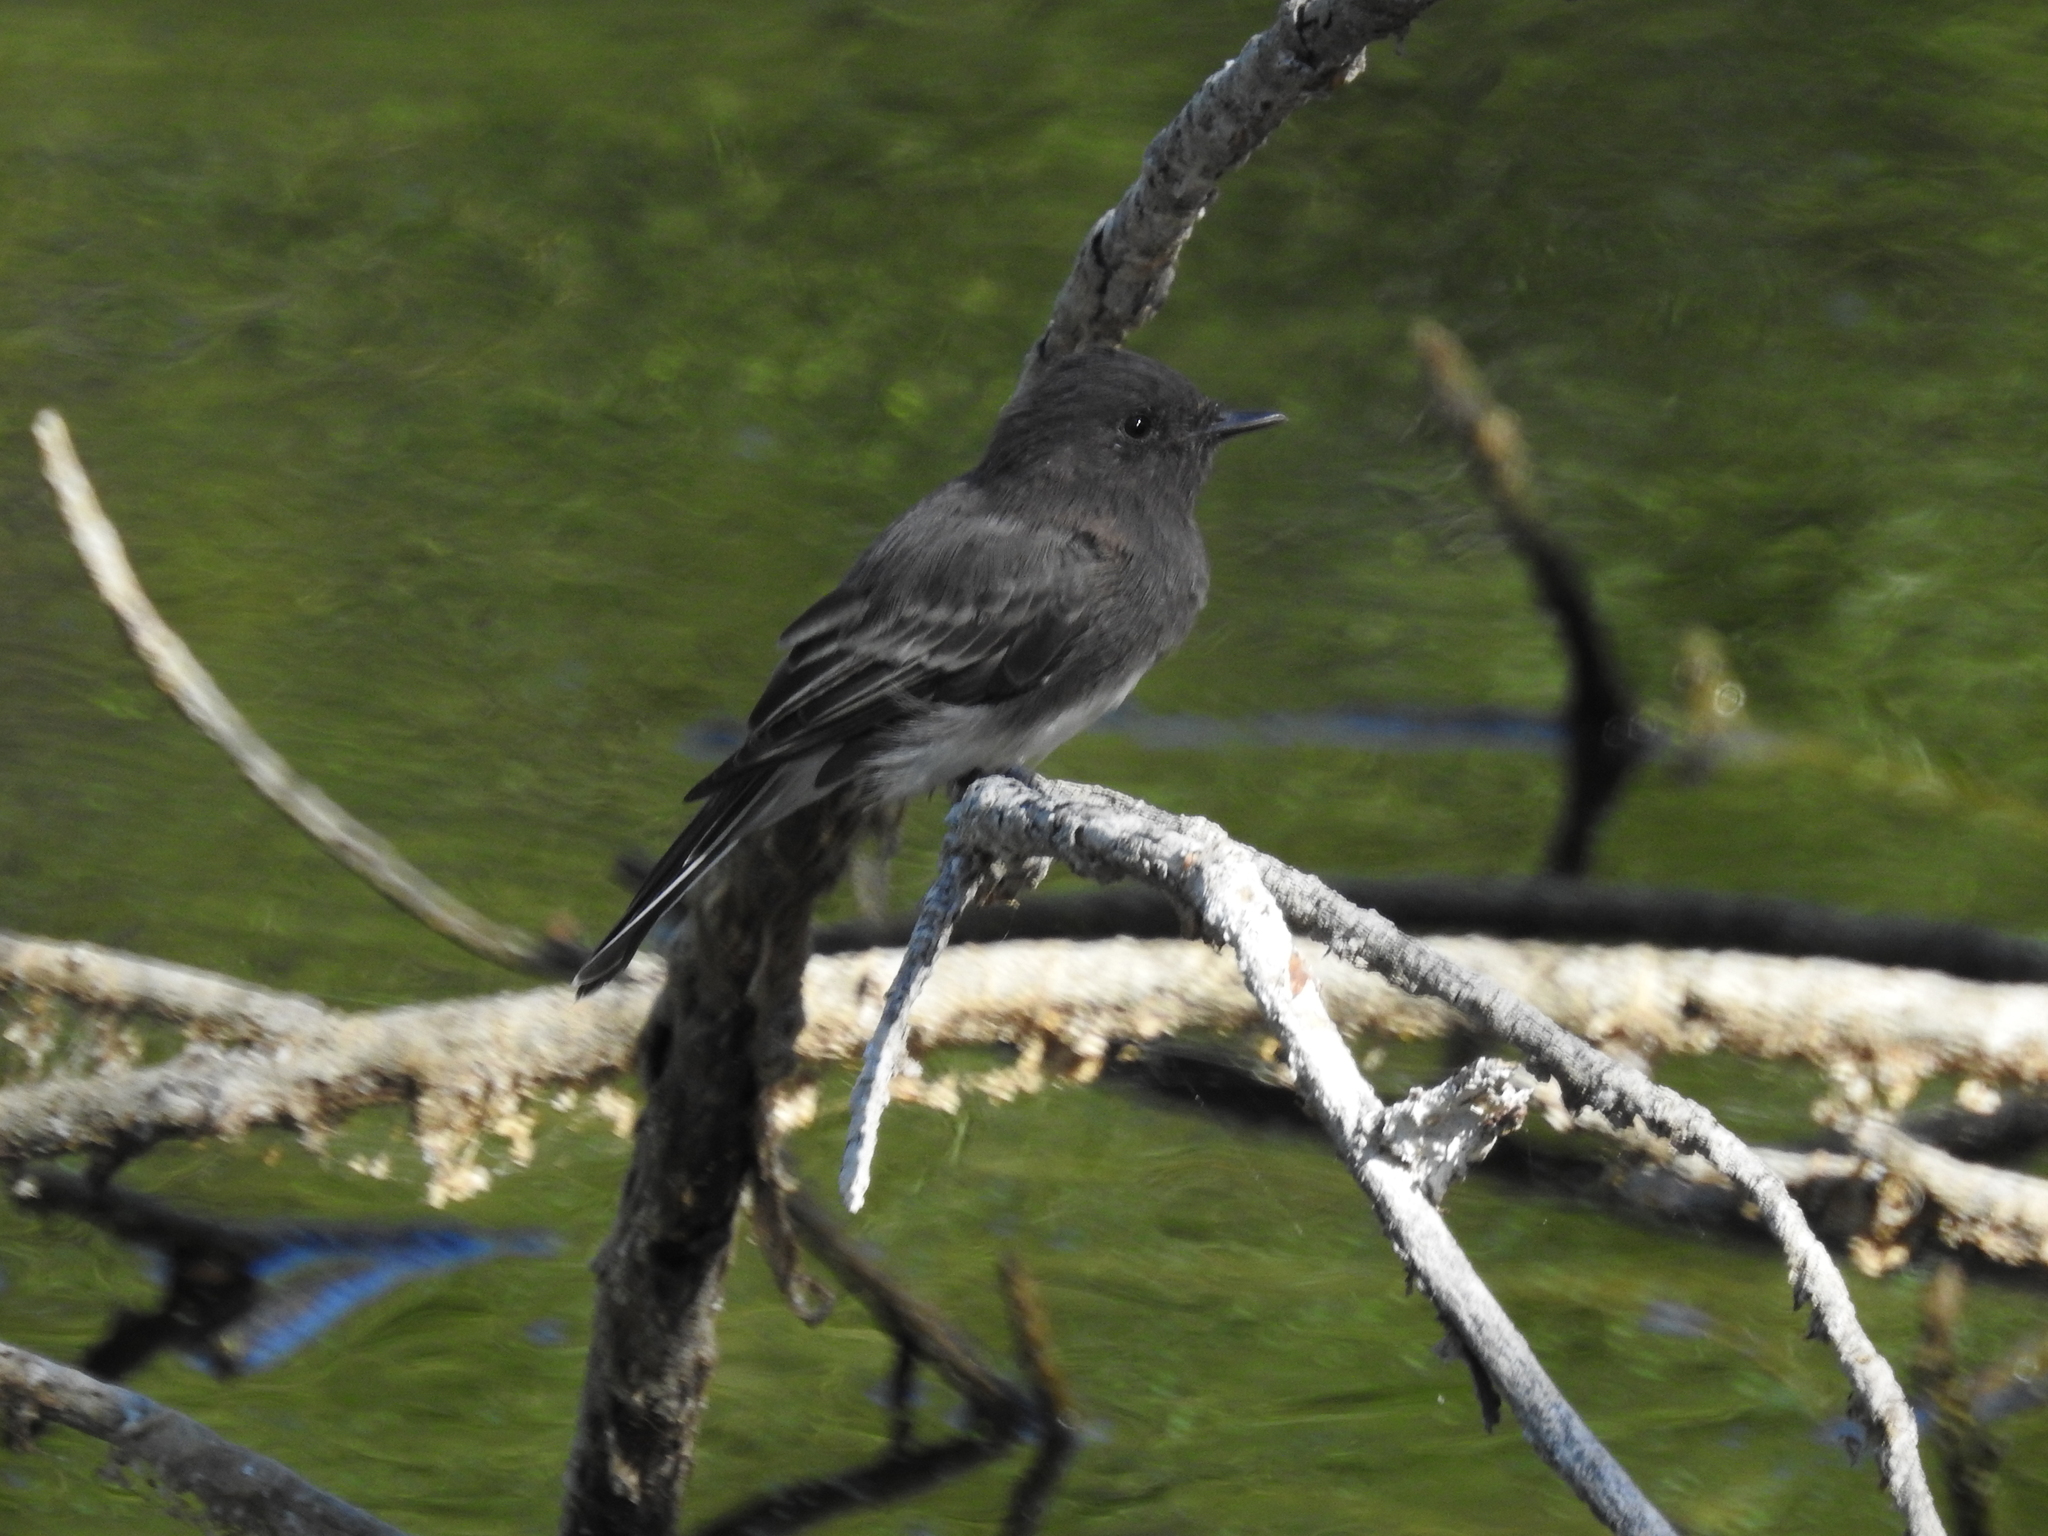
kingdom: Animalia
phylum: Chordata
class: Aves
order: Passeriformes
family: Tyrannidae
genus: Sayornis
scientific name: Sayornis nigricans
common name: Black phoebe
